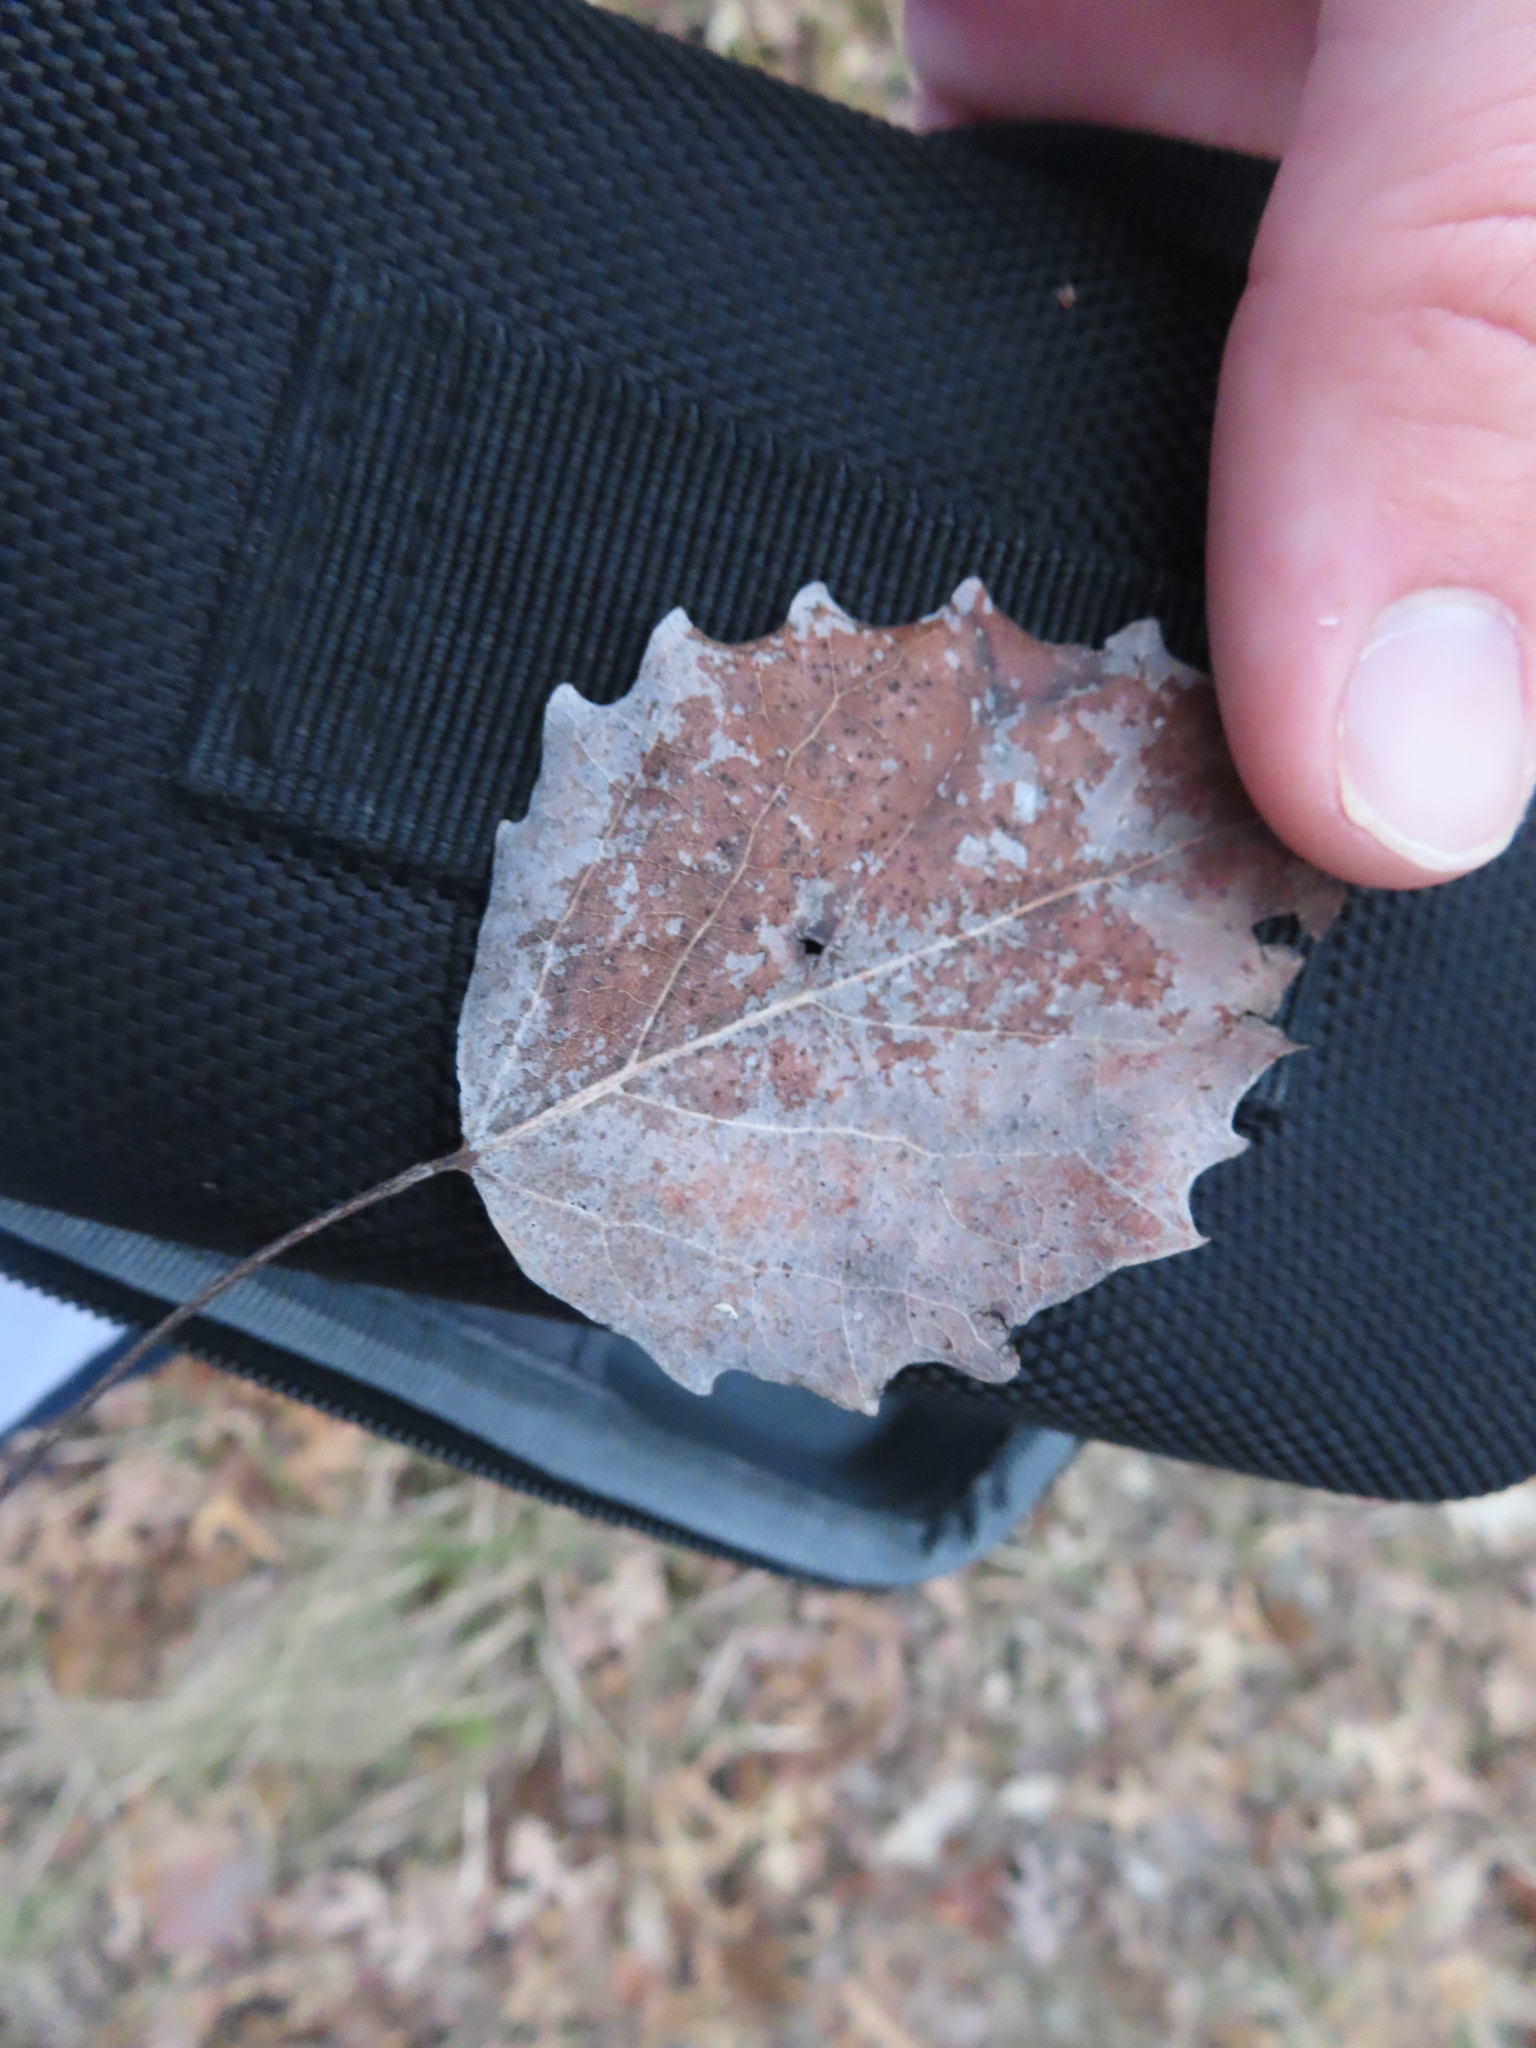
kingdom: Plantae
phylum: Tracheophyta
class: Magnoliopsida
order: Malpighiales
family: Salicaceae
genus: Populus
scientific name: Populus grandidentata
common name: Bigtooth aspen
